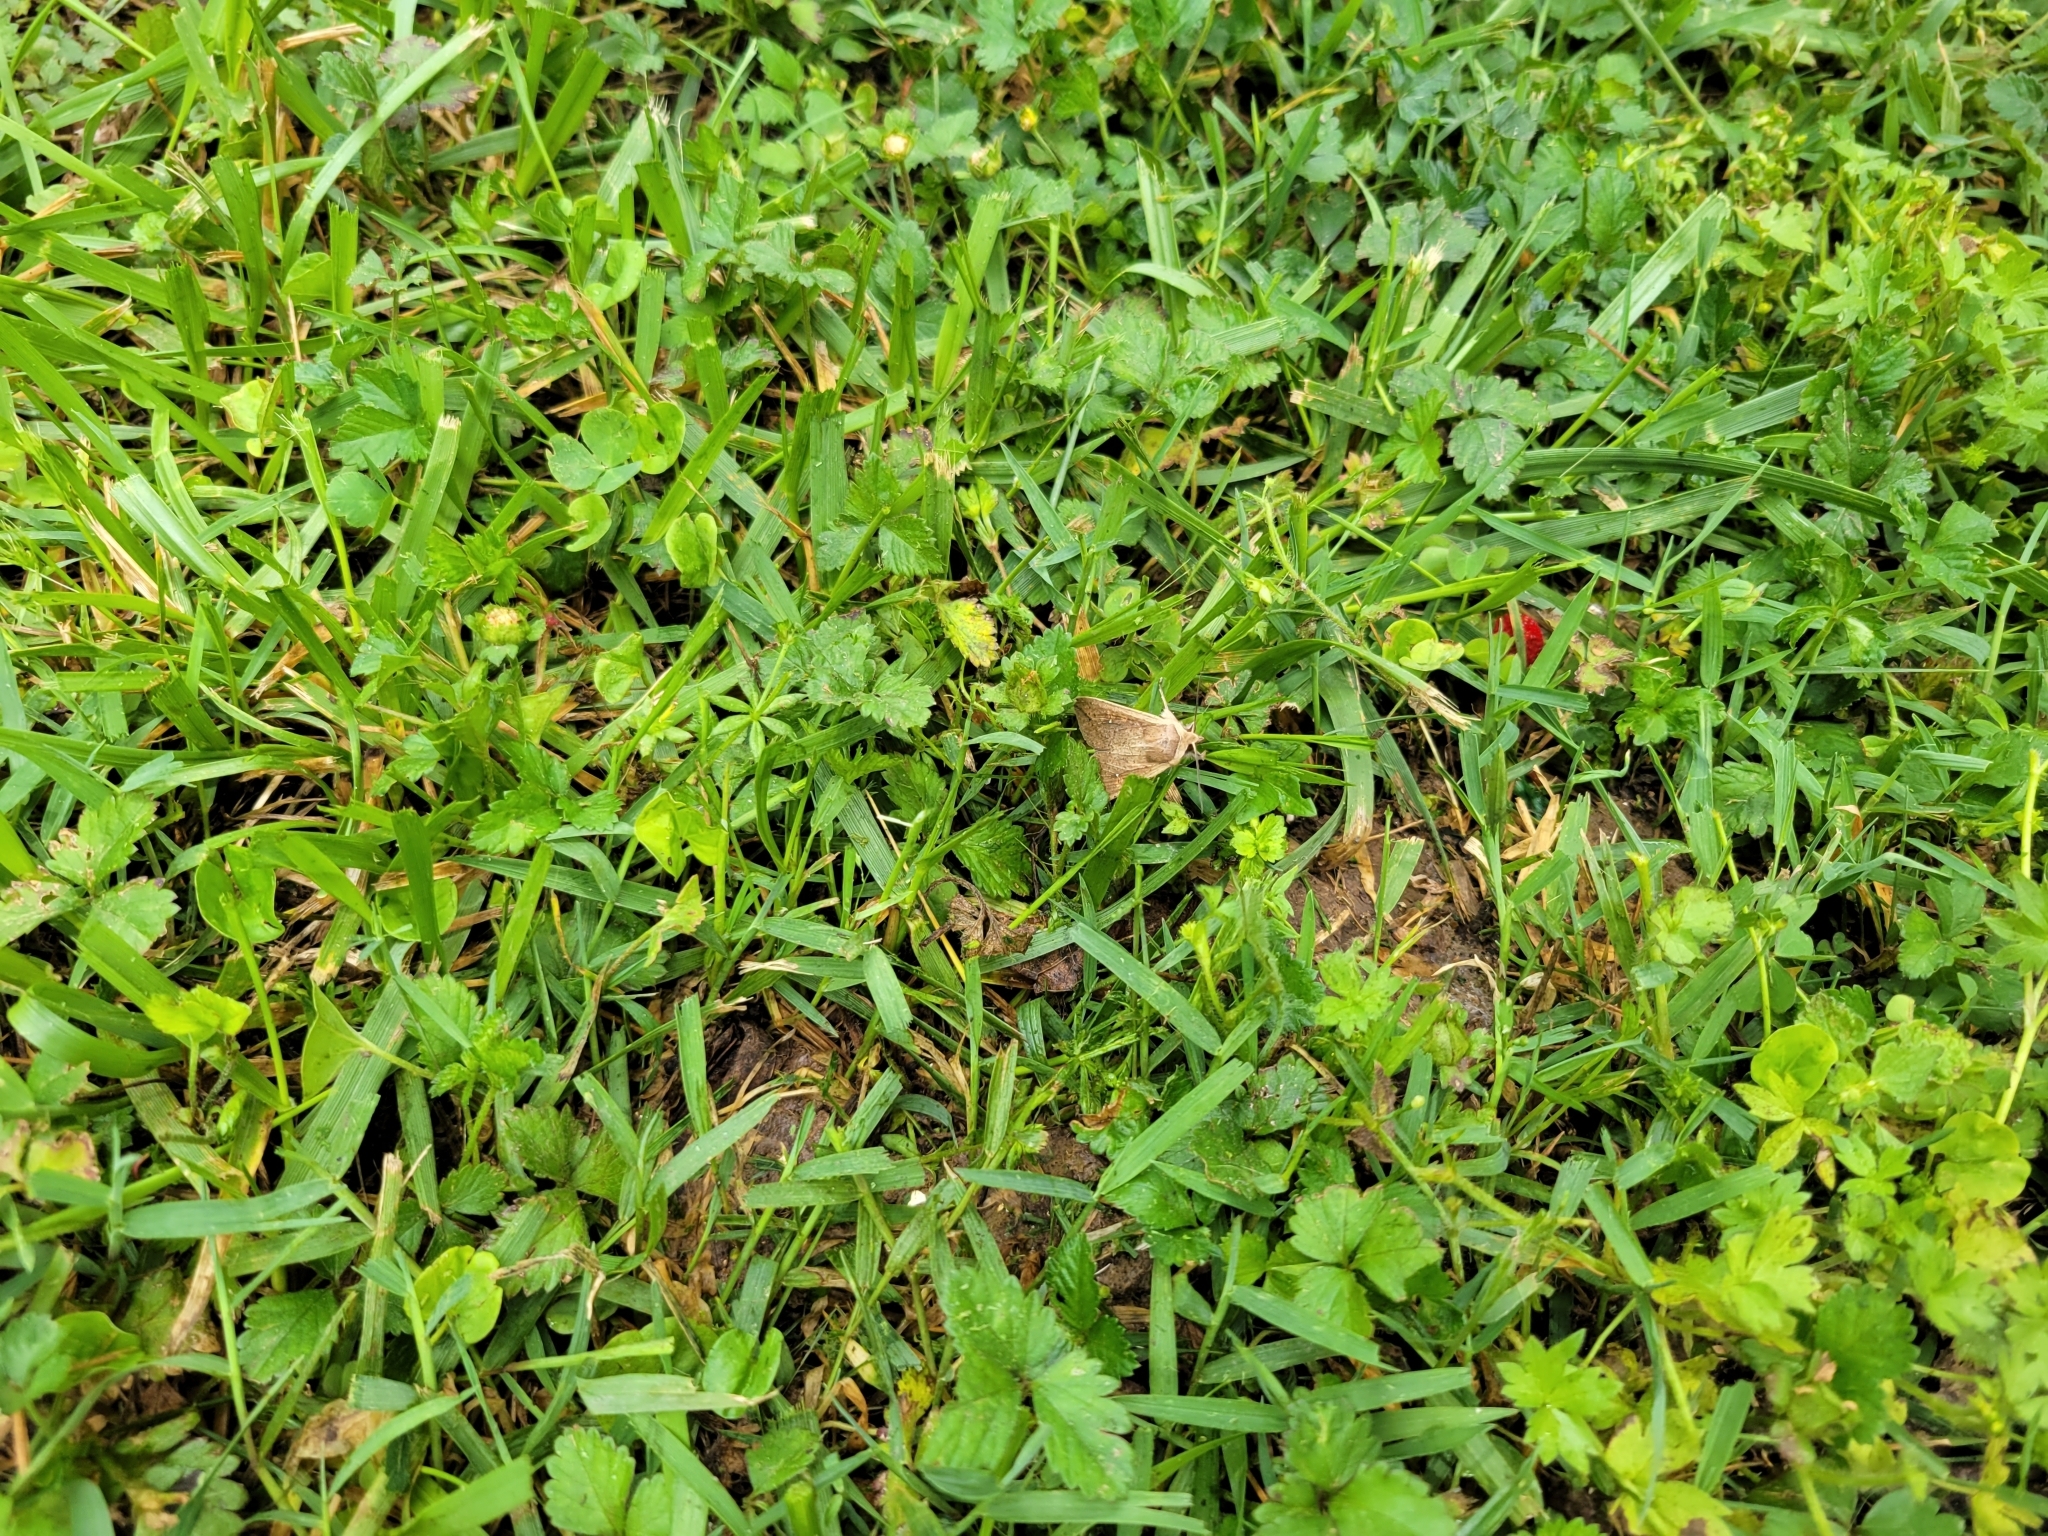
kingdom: Animalia
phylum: Arthropoda
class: Insecta
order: Lepidoptera
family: Noctuidae
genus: Mythimna
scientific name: Mythimna unipuncta
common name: White-speck
